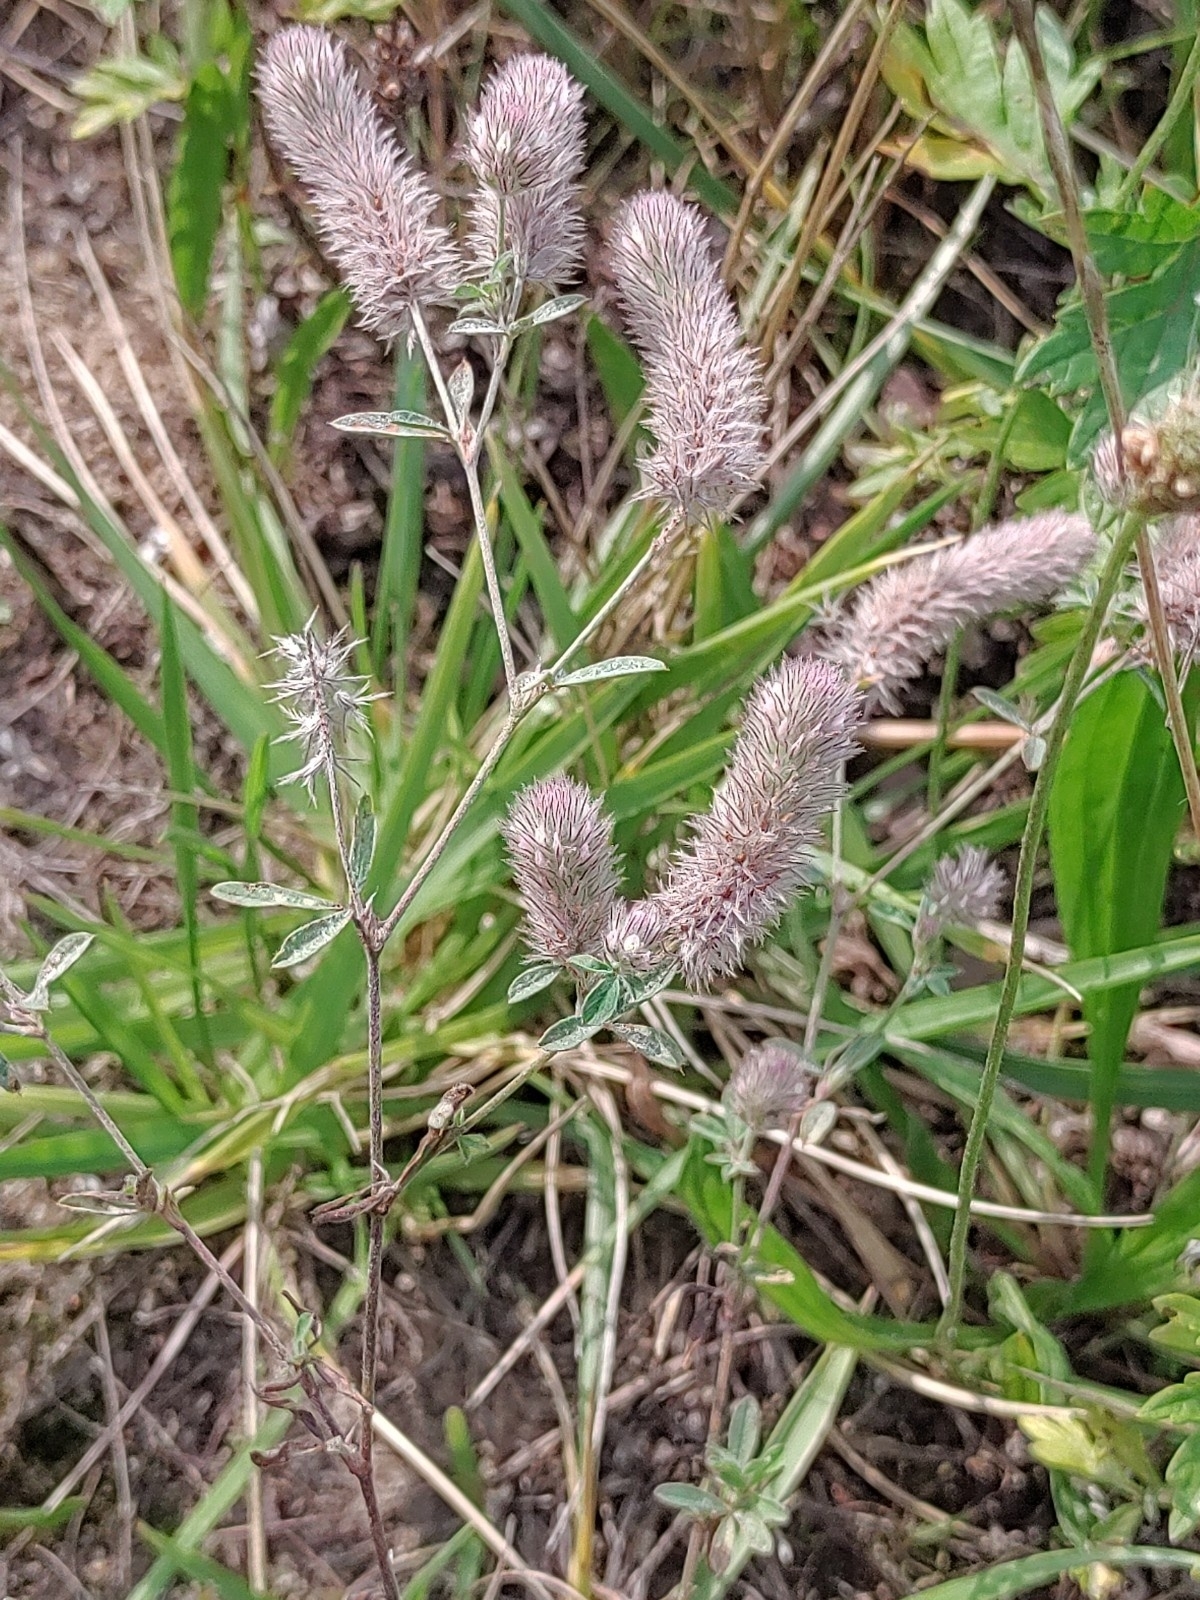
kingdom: Plantae
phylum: Tracheophyta
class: Magnoliopsida
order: Fabales
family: Fabaceae
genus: Trifolium
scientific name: Trifolium arvense
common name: Hare's-foot clover
